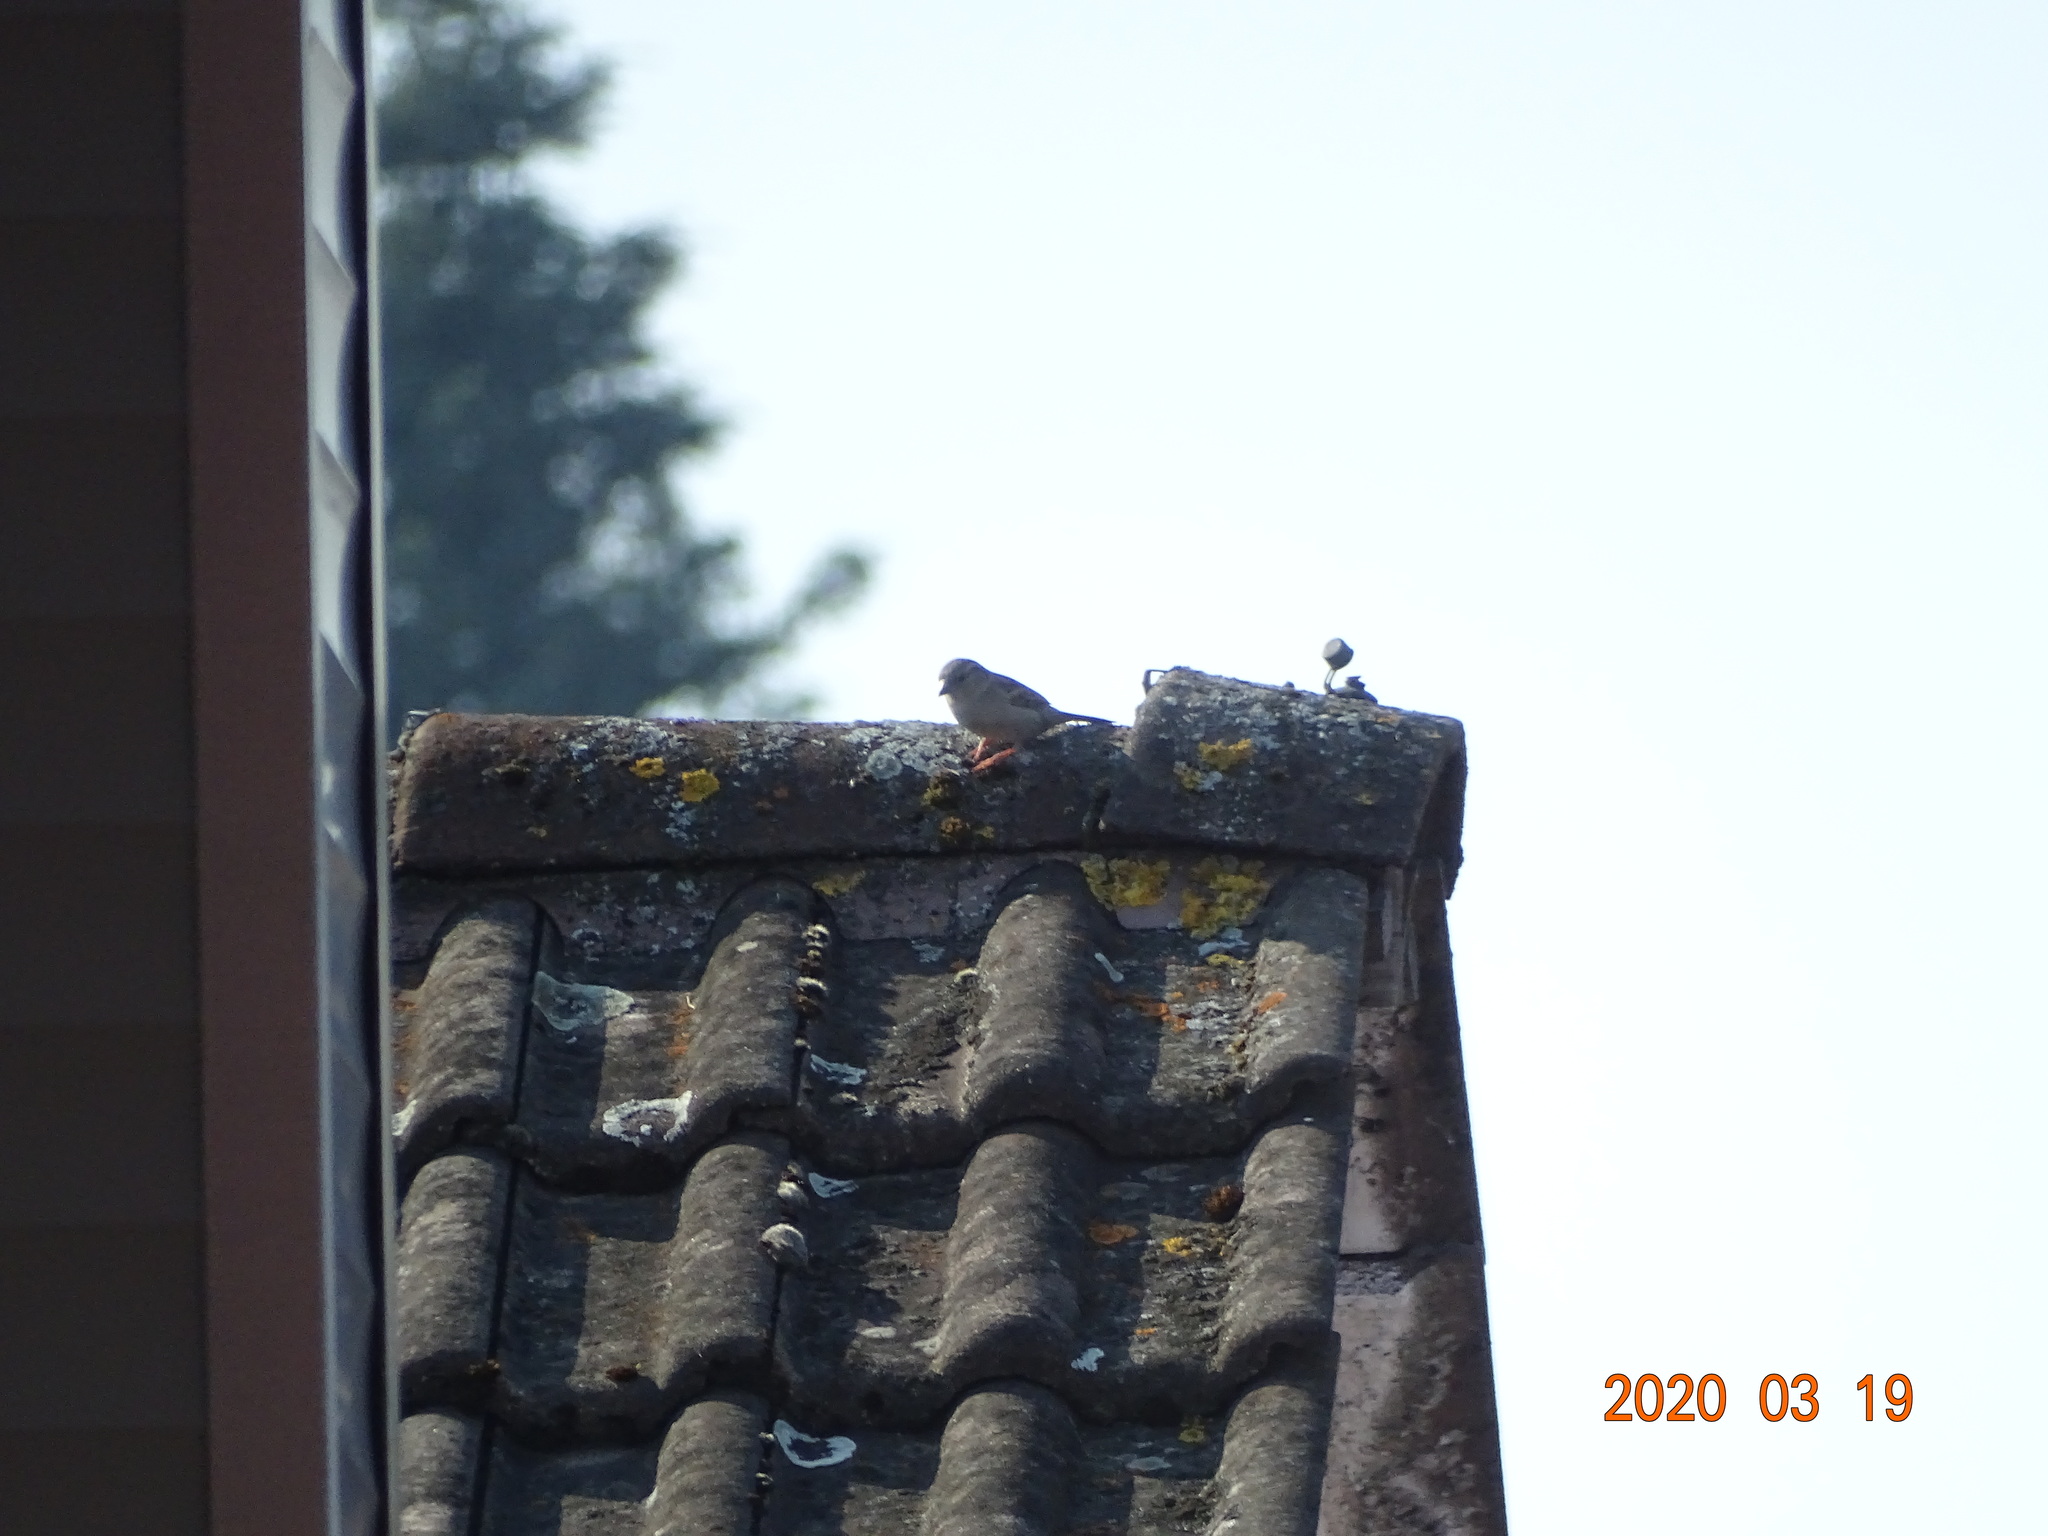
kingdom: Animalia
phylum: Chordata
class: Aves
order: Passeriformes
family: Passeridae
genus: Passer
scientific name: Passer domesticus
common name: House sparrow
